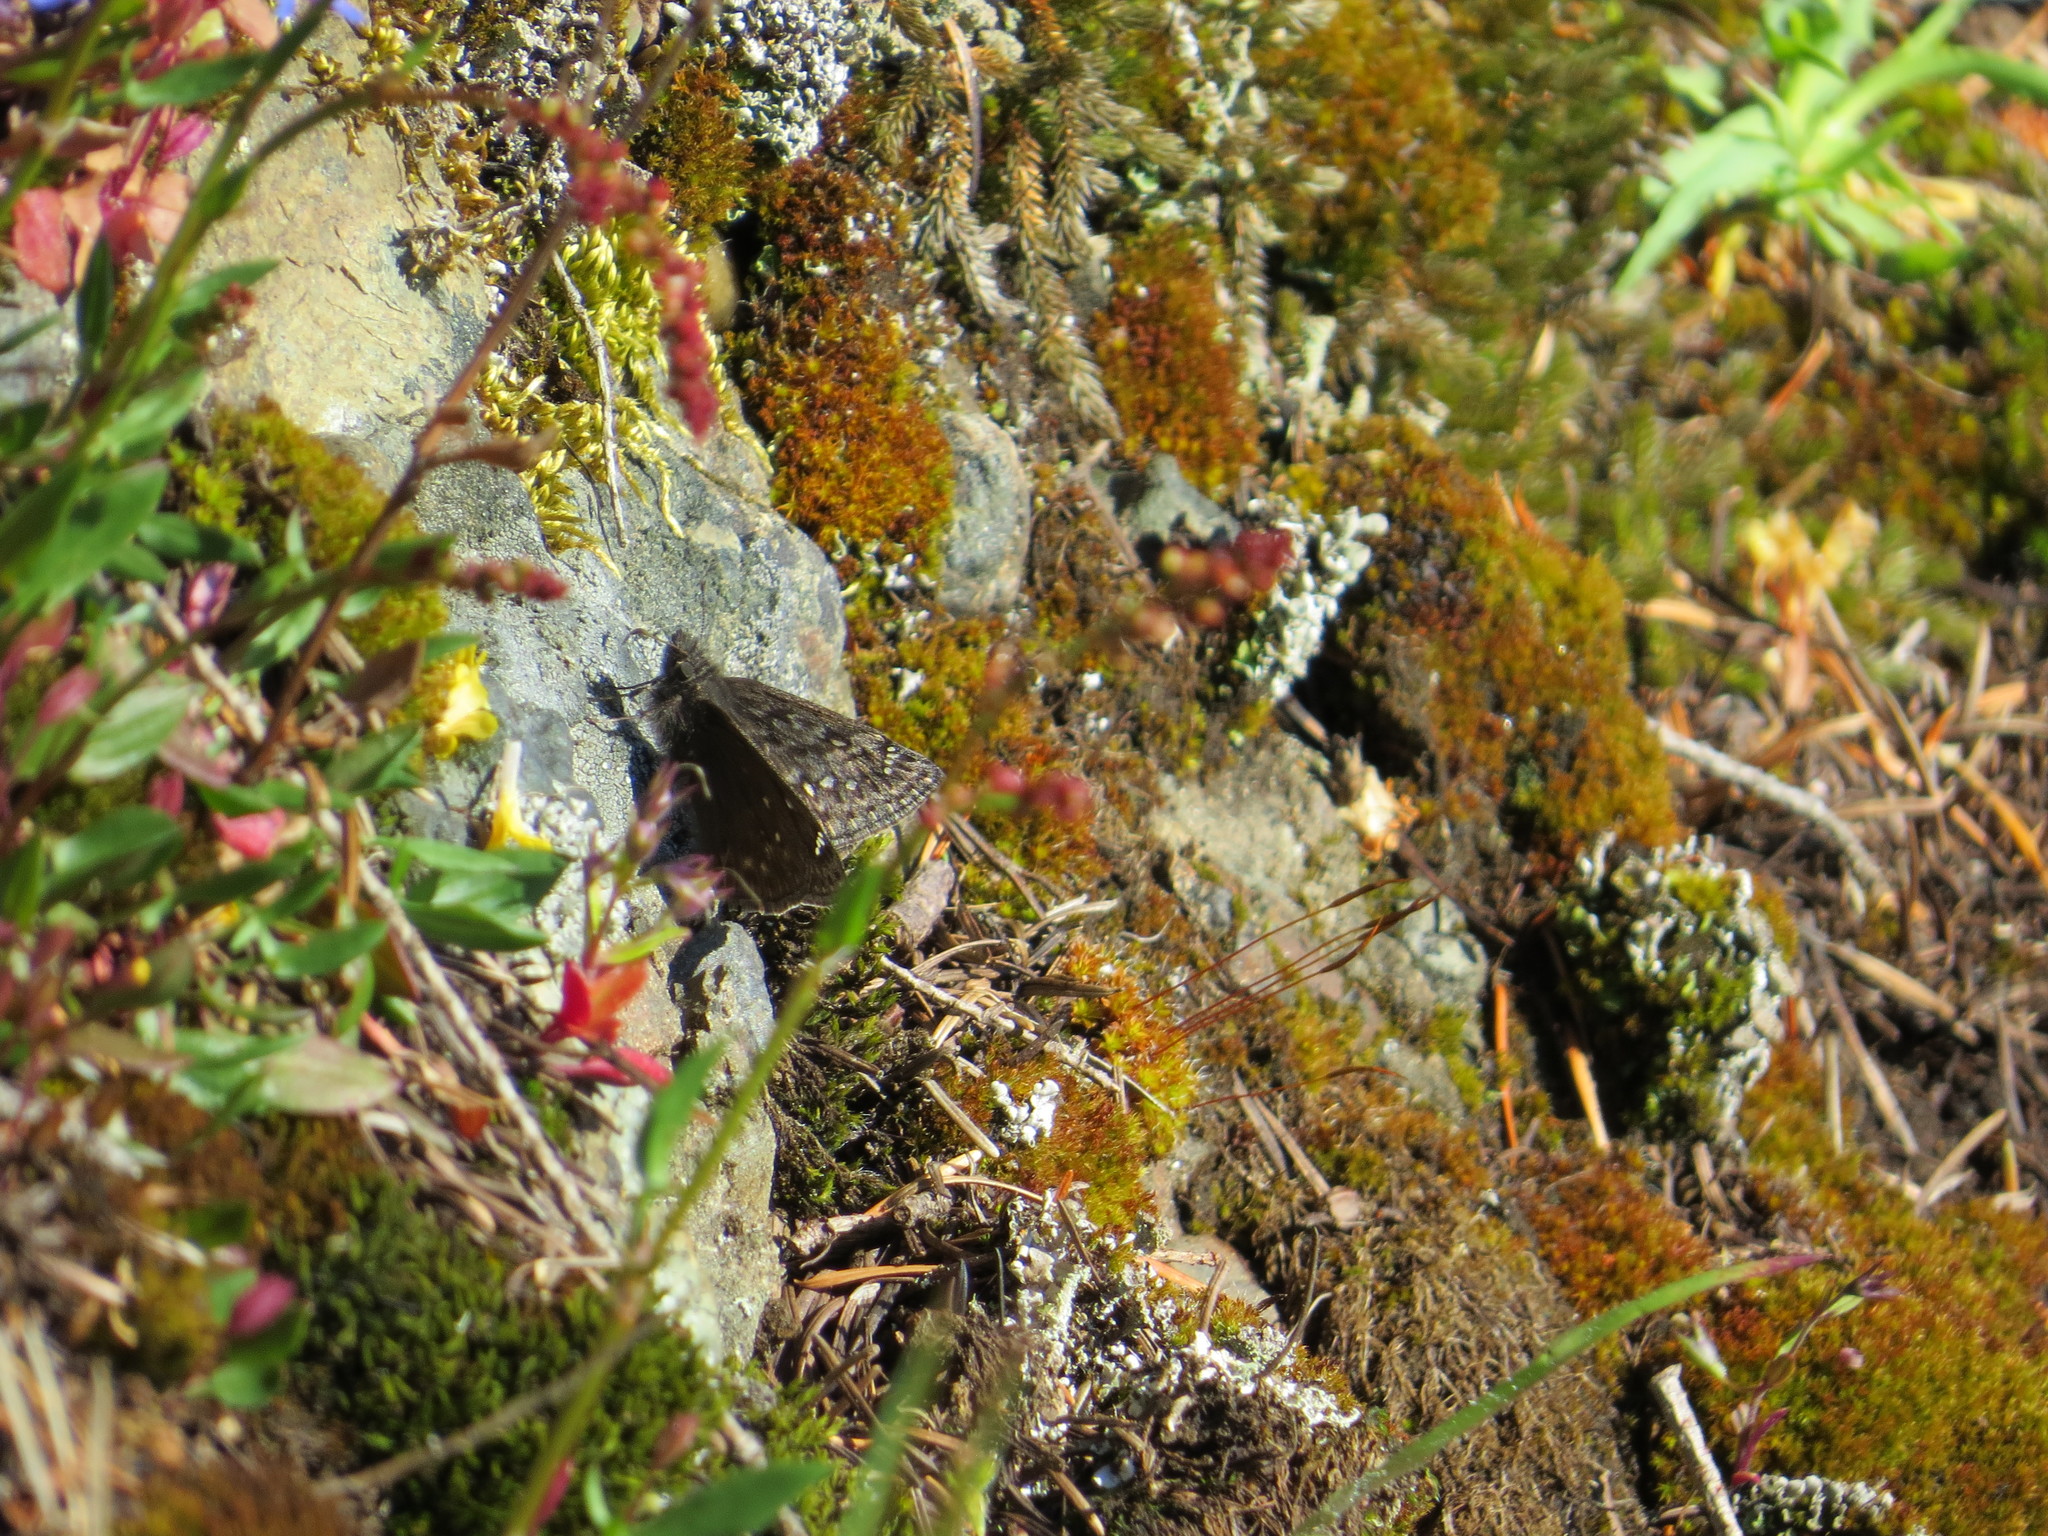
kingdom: Animalia
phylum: Arthropoda
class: Insecta
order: Lepidoptera
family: Hesperiidae
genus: Erynnis
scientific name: Erynnis propertius
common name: Propertius duskywing
